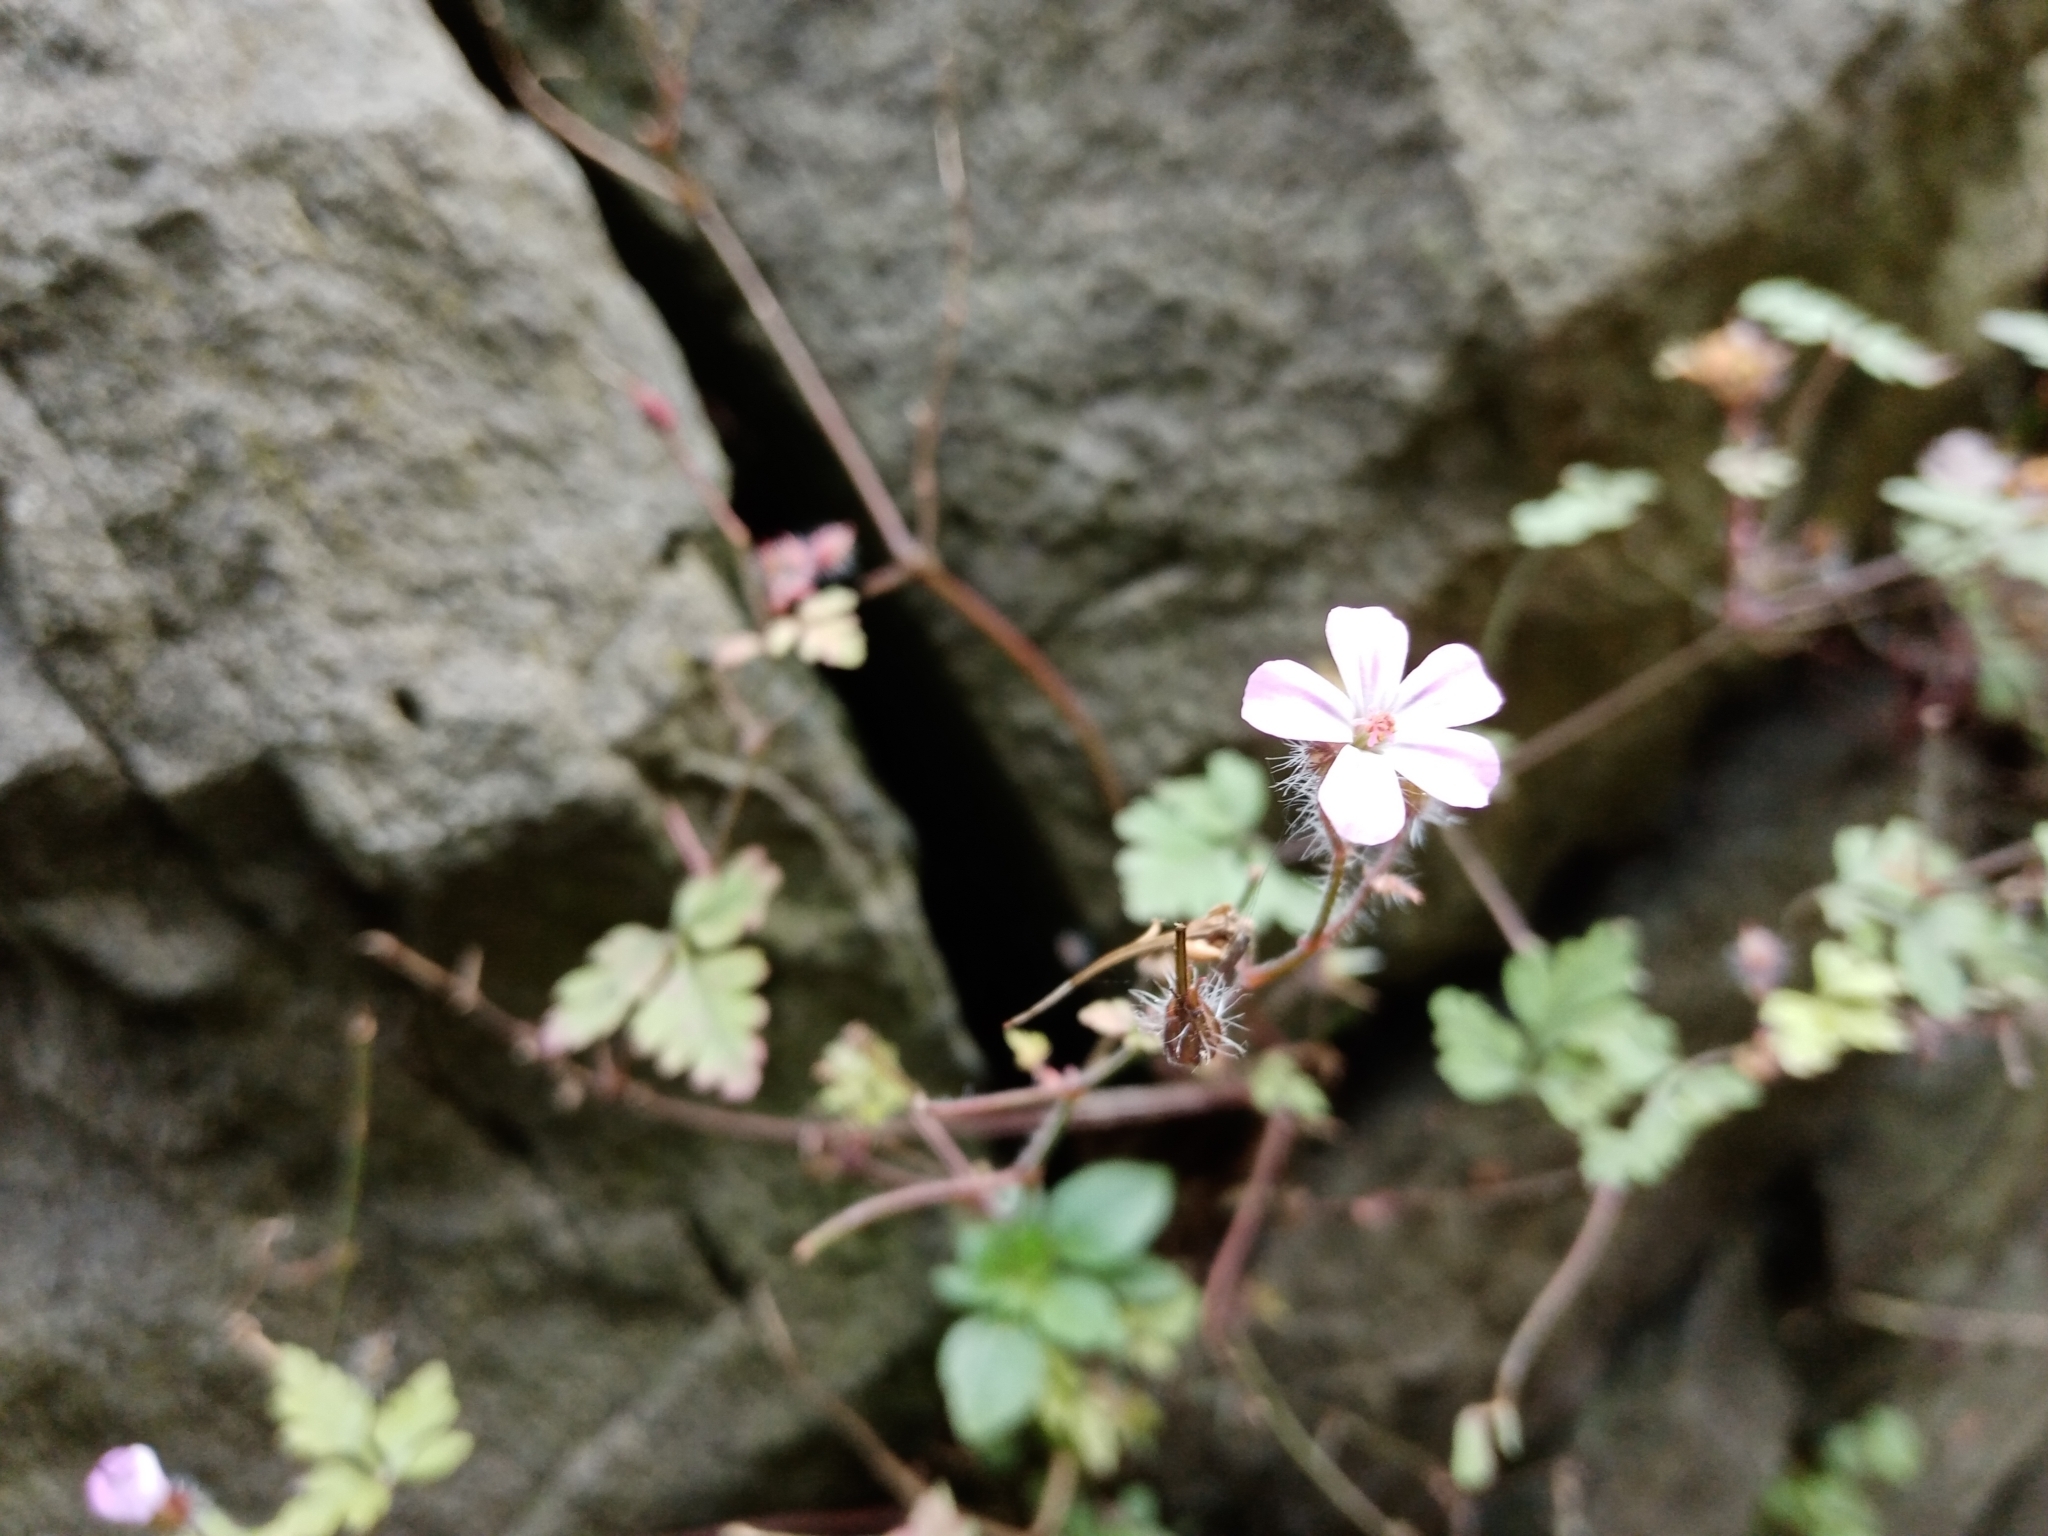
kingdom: Plantae
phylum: Tracheophyta
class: Magnoliopsida
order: Geraniales
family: Geraniaceae
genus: Geranium
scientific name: Geranium robertianum
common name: Herb-robert
